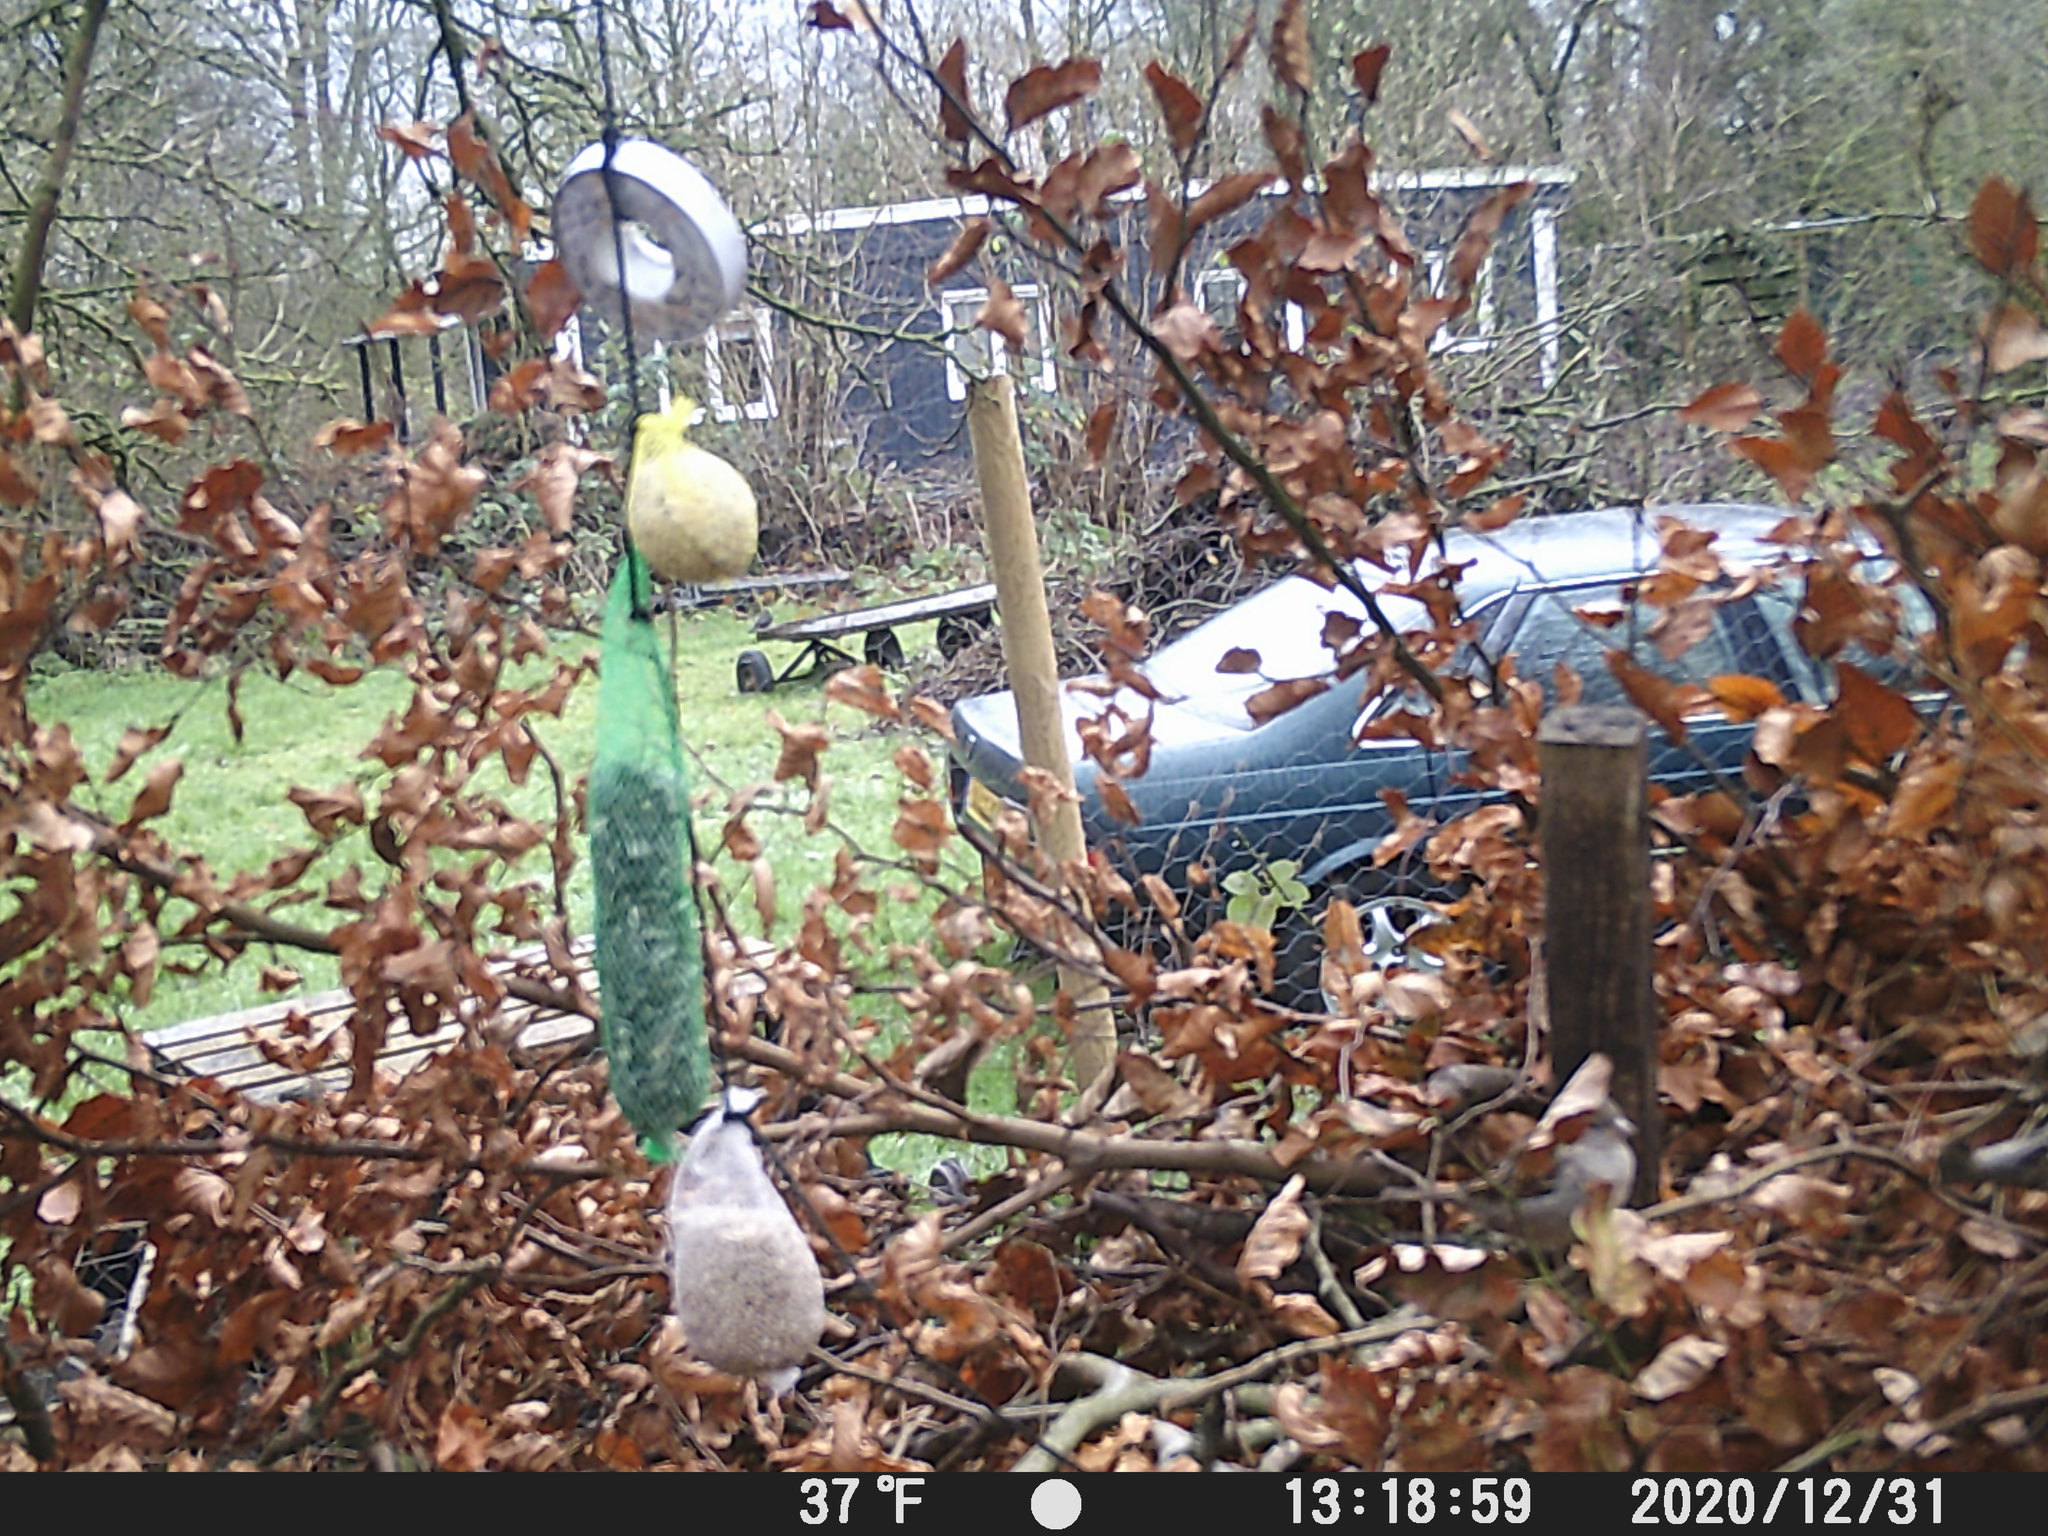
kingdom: Animalia
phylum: Chordata
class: Aves
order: Passeriformes
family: Passeridae
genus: Passer
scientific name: Passer domesticus
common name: House sparrow
